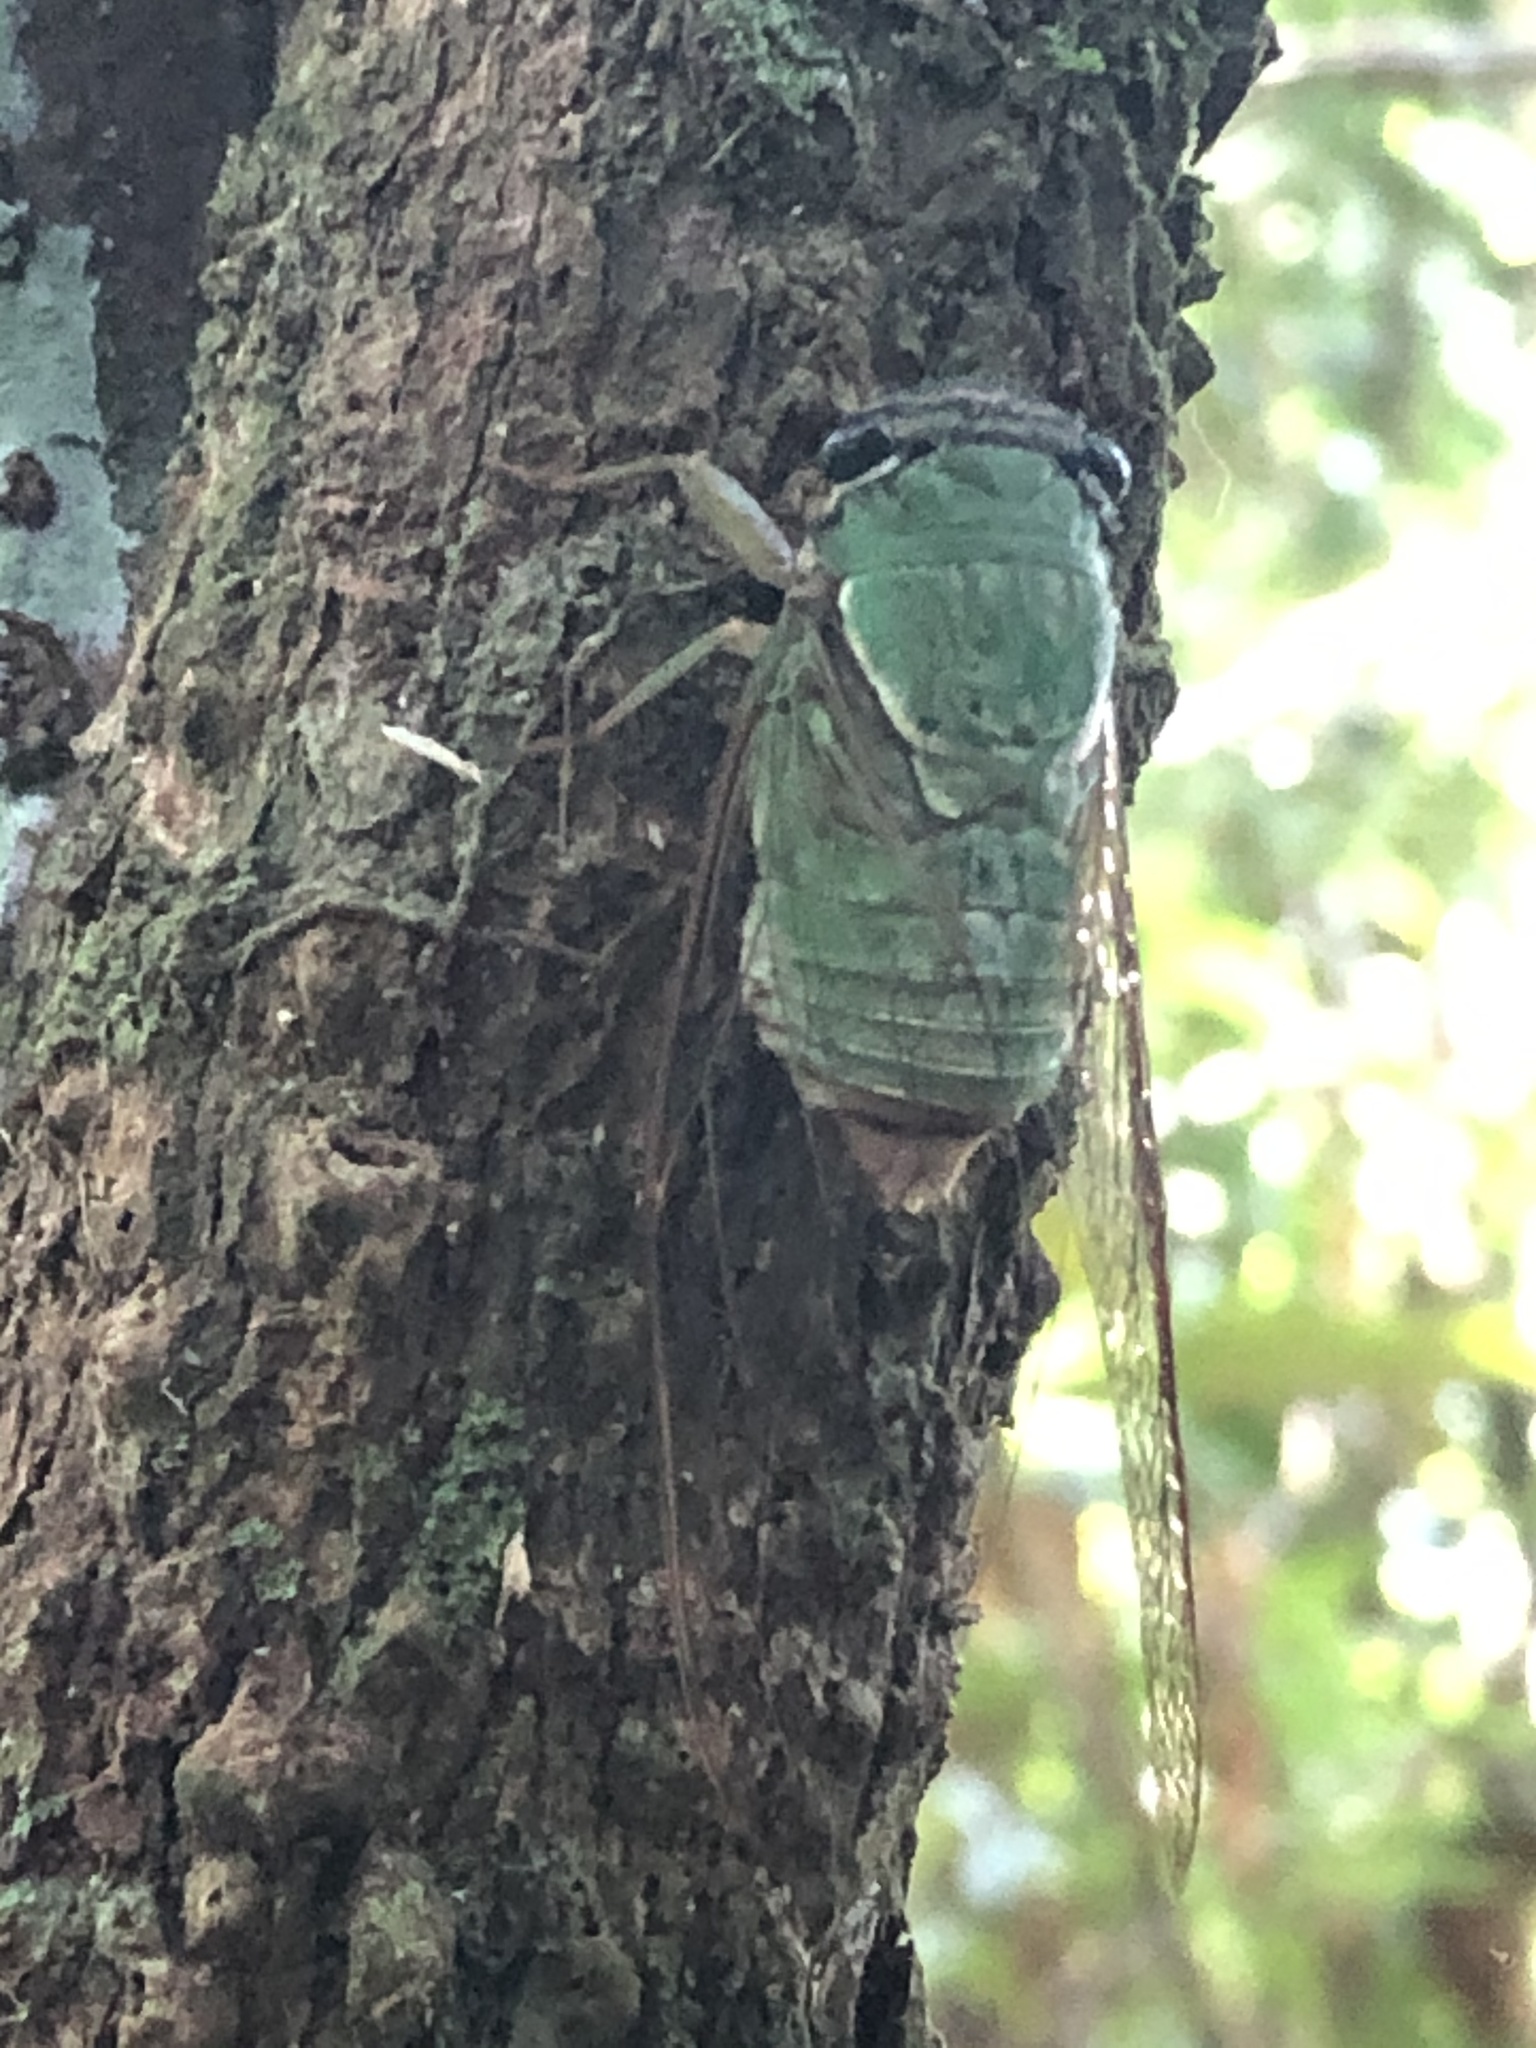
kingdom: Animalia
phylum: Arthropoda
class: Insecta
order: Hemiptera
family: Cicadidae
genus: Guyalna
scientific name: Guyalna glaucus
